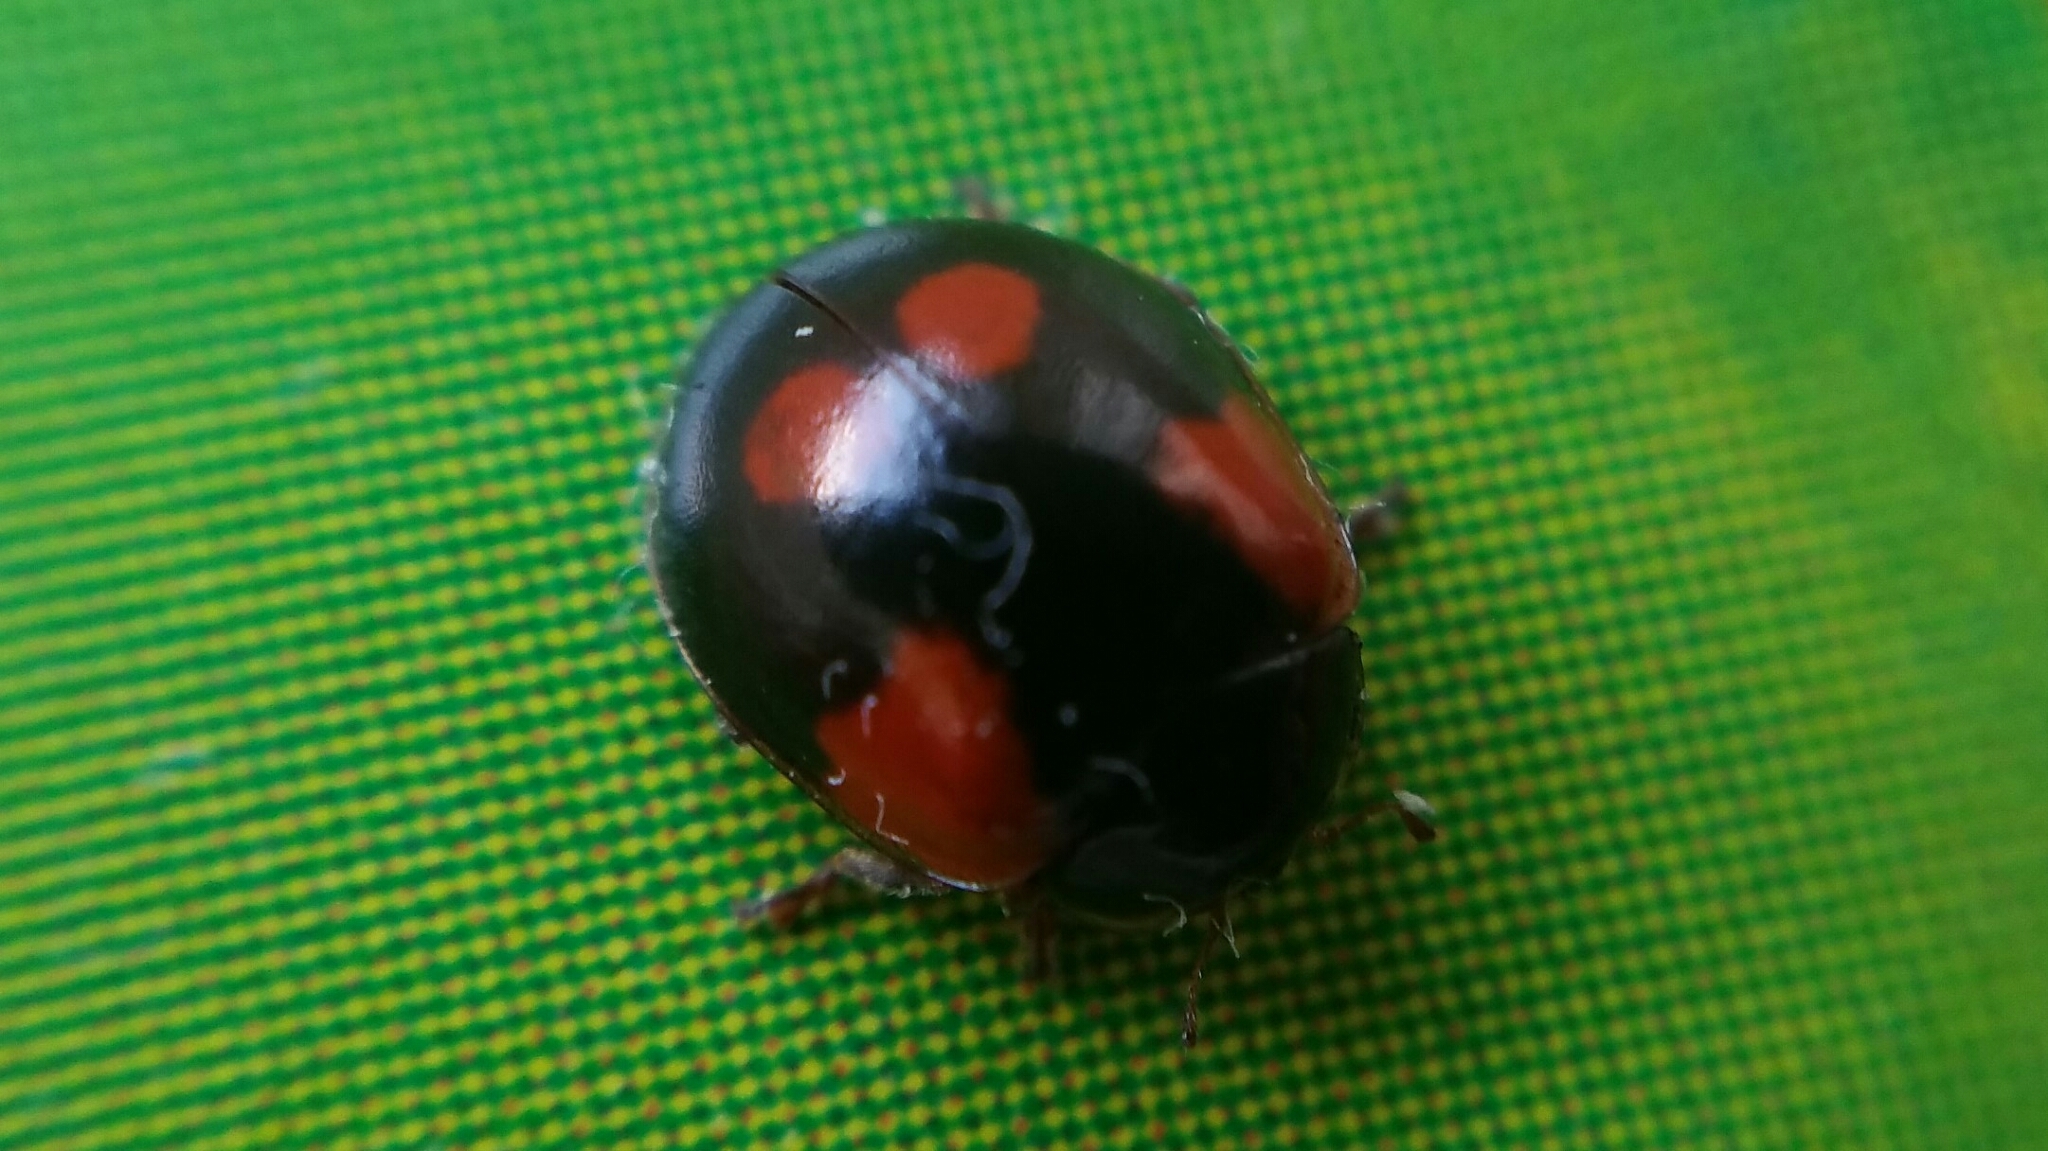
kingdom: Animalia
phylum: Arthropoda
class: Insecta
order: Coleoptera
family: Coccinellidae
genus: Adalia
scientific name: Adalia bipunctata
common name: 2-spot ladybird
